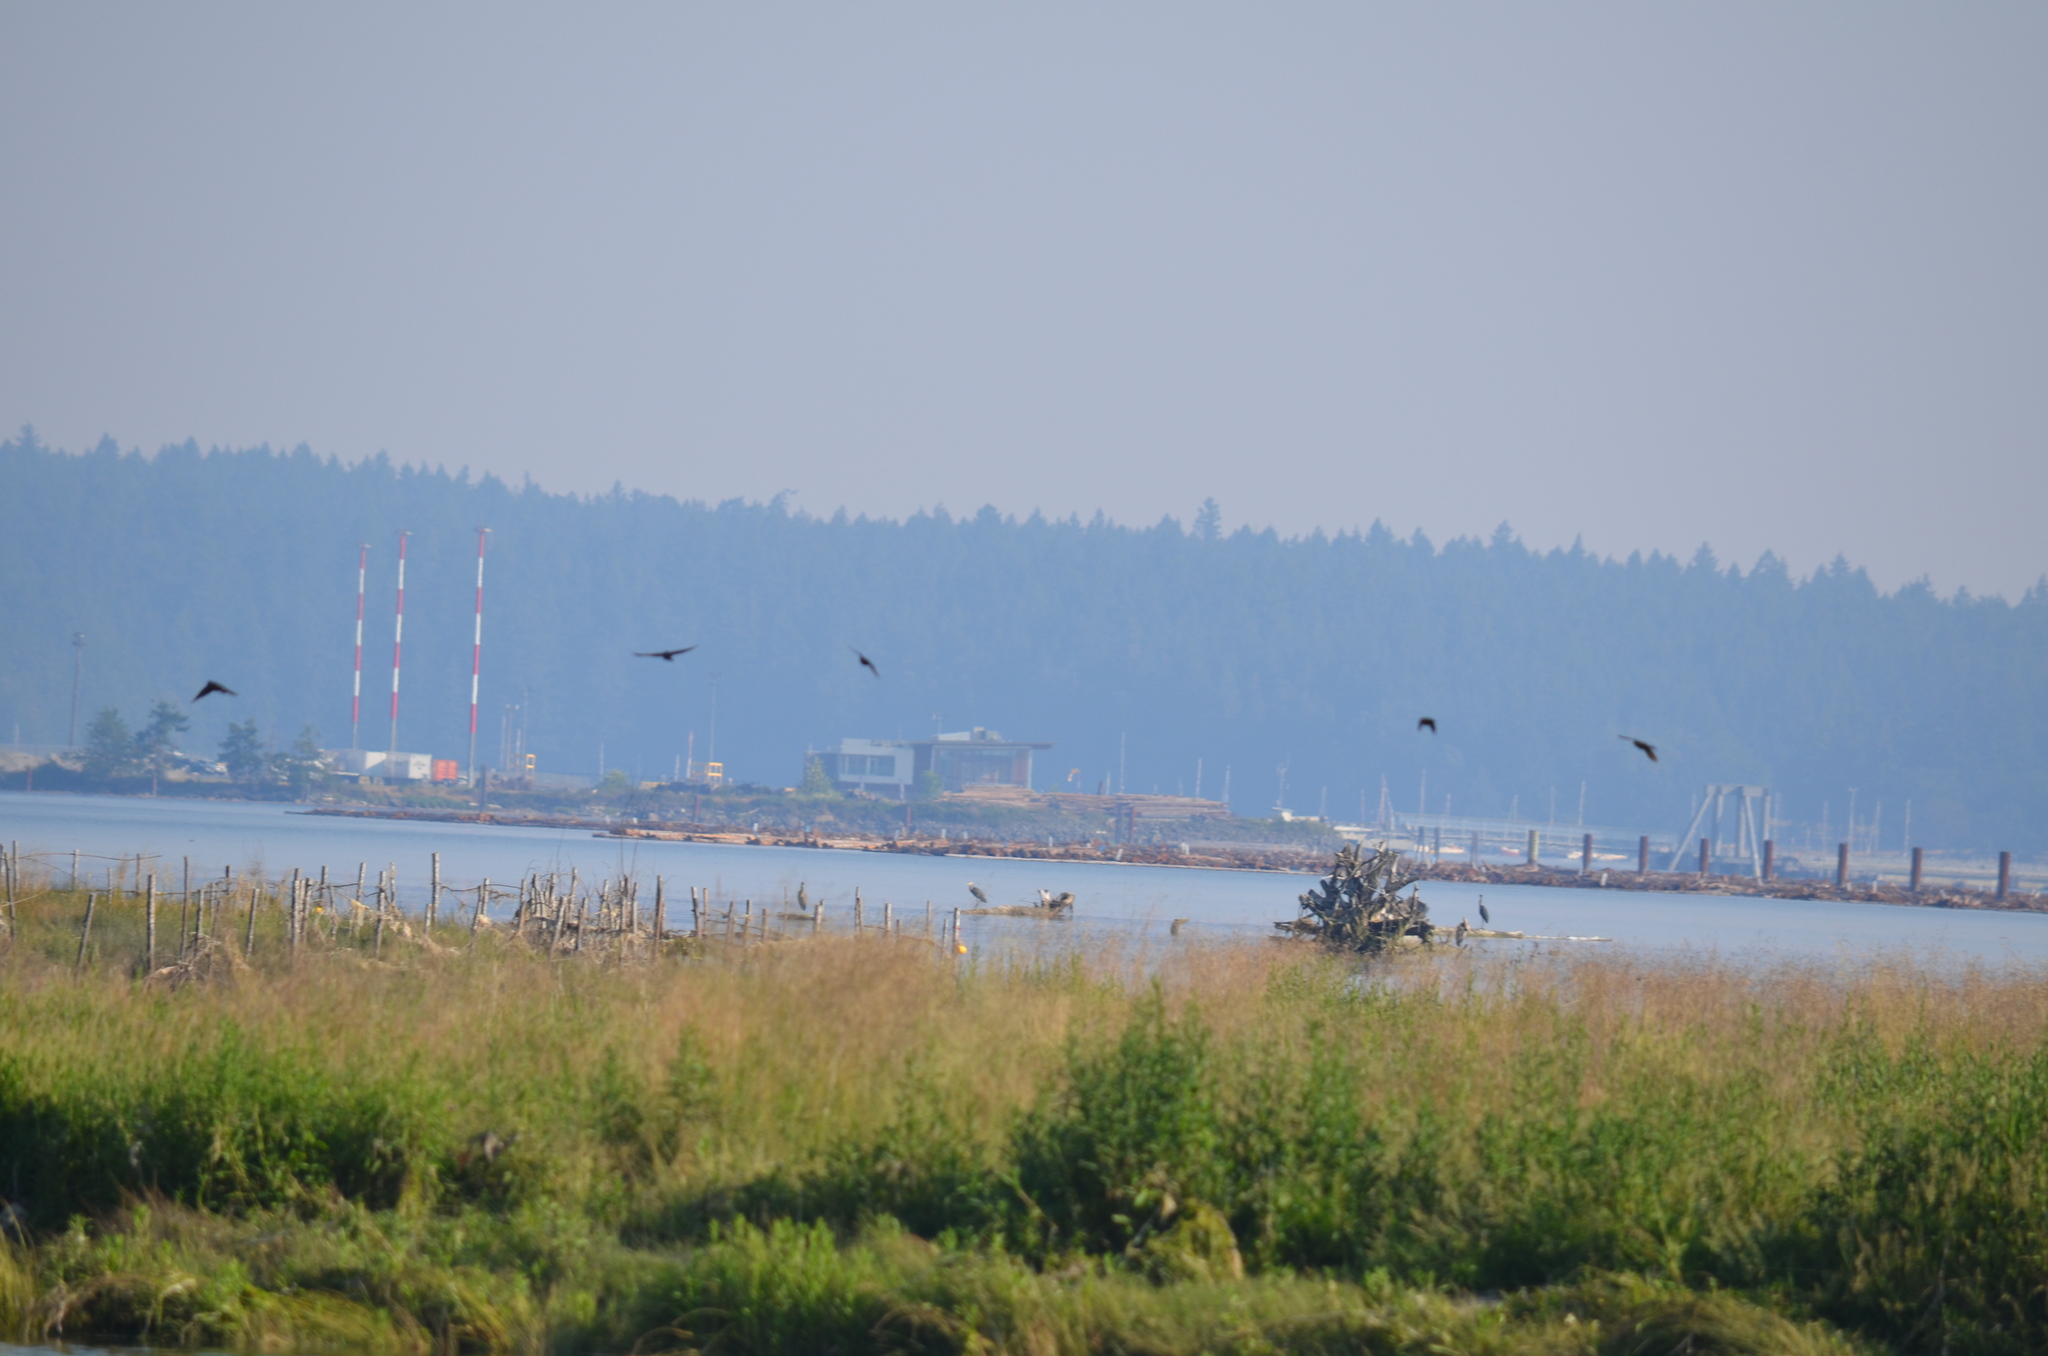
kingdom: Animalia
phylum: Chordata
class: Aves
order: Pelecaniformes
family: Ardeidae
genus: Ardea
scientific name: Ardea herodias
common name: Great blue heron
